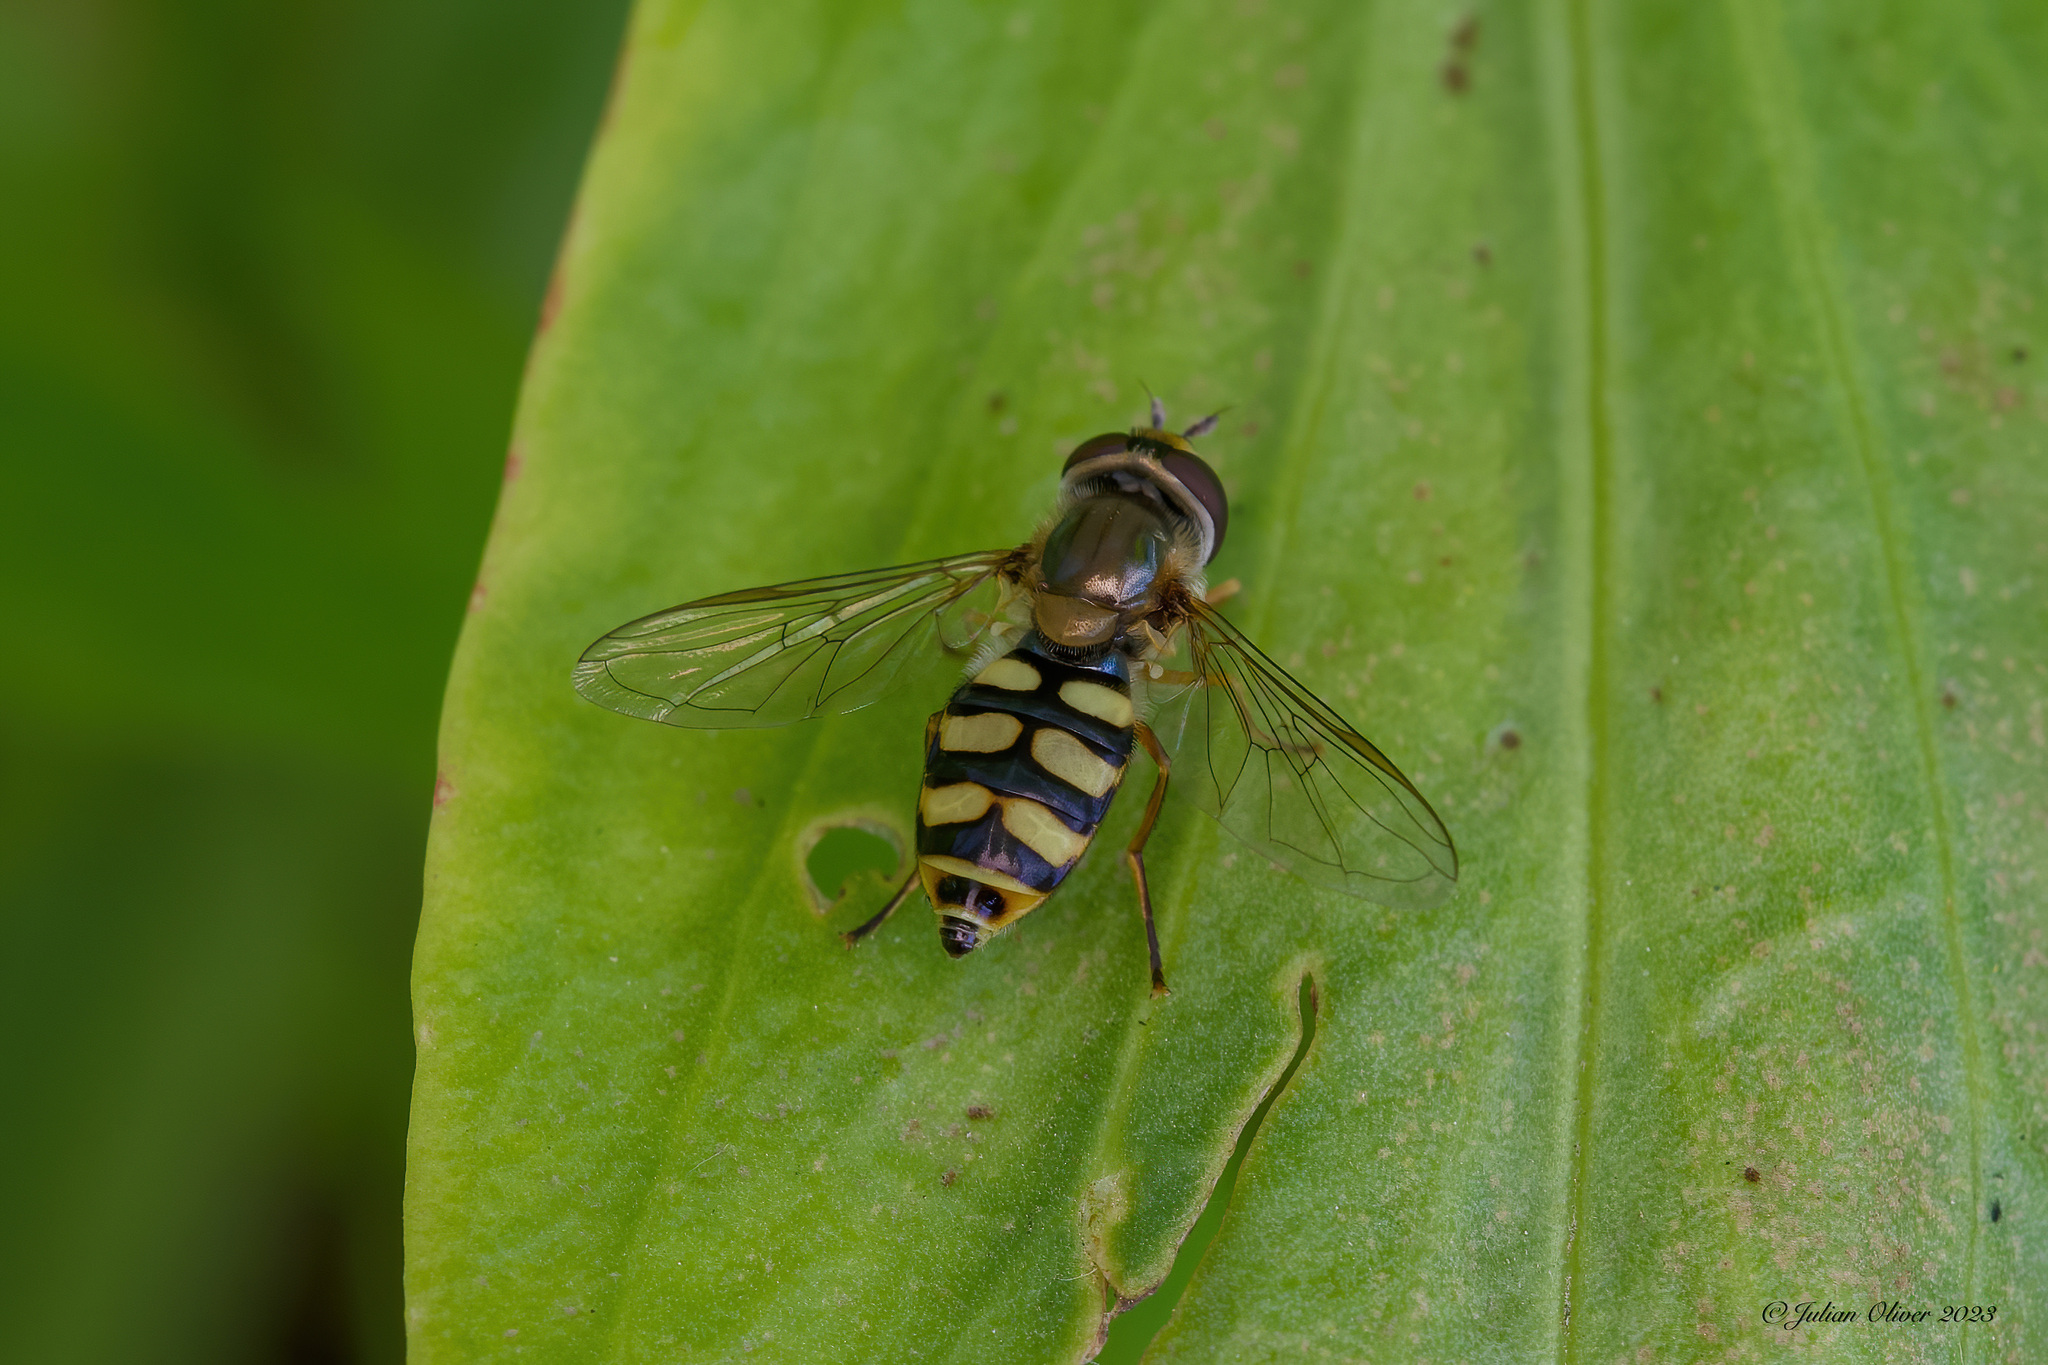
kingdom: Animalia
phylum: Arthropoda
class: Insecta
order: Diptera
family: Syrphidae
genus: Eupeodes
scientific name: Eupeodes corollae
